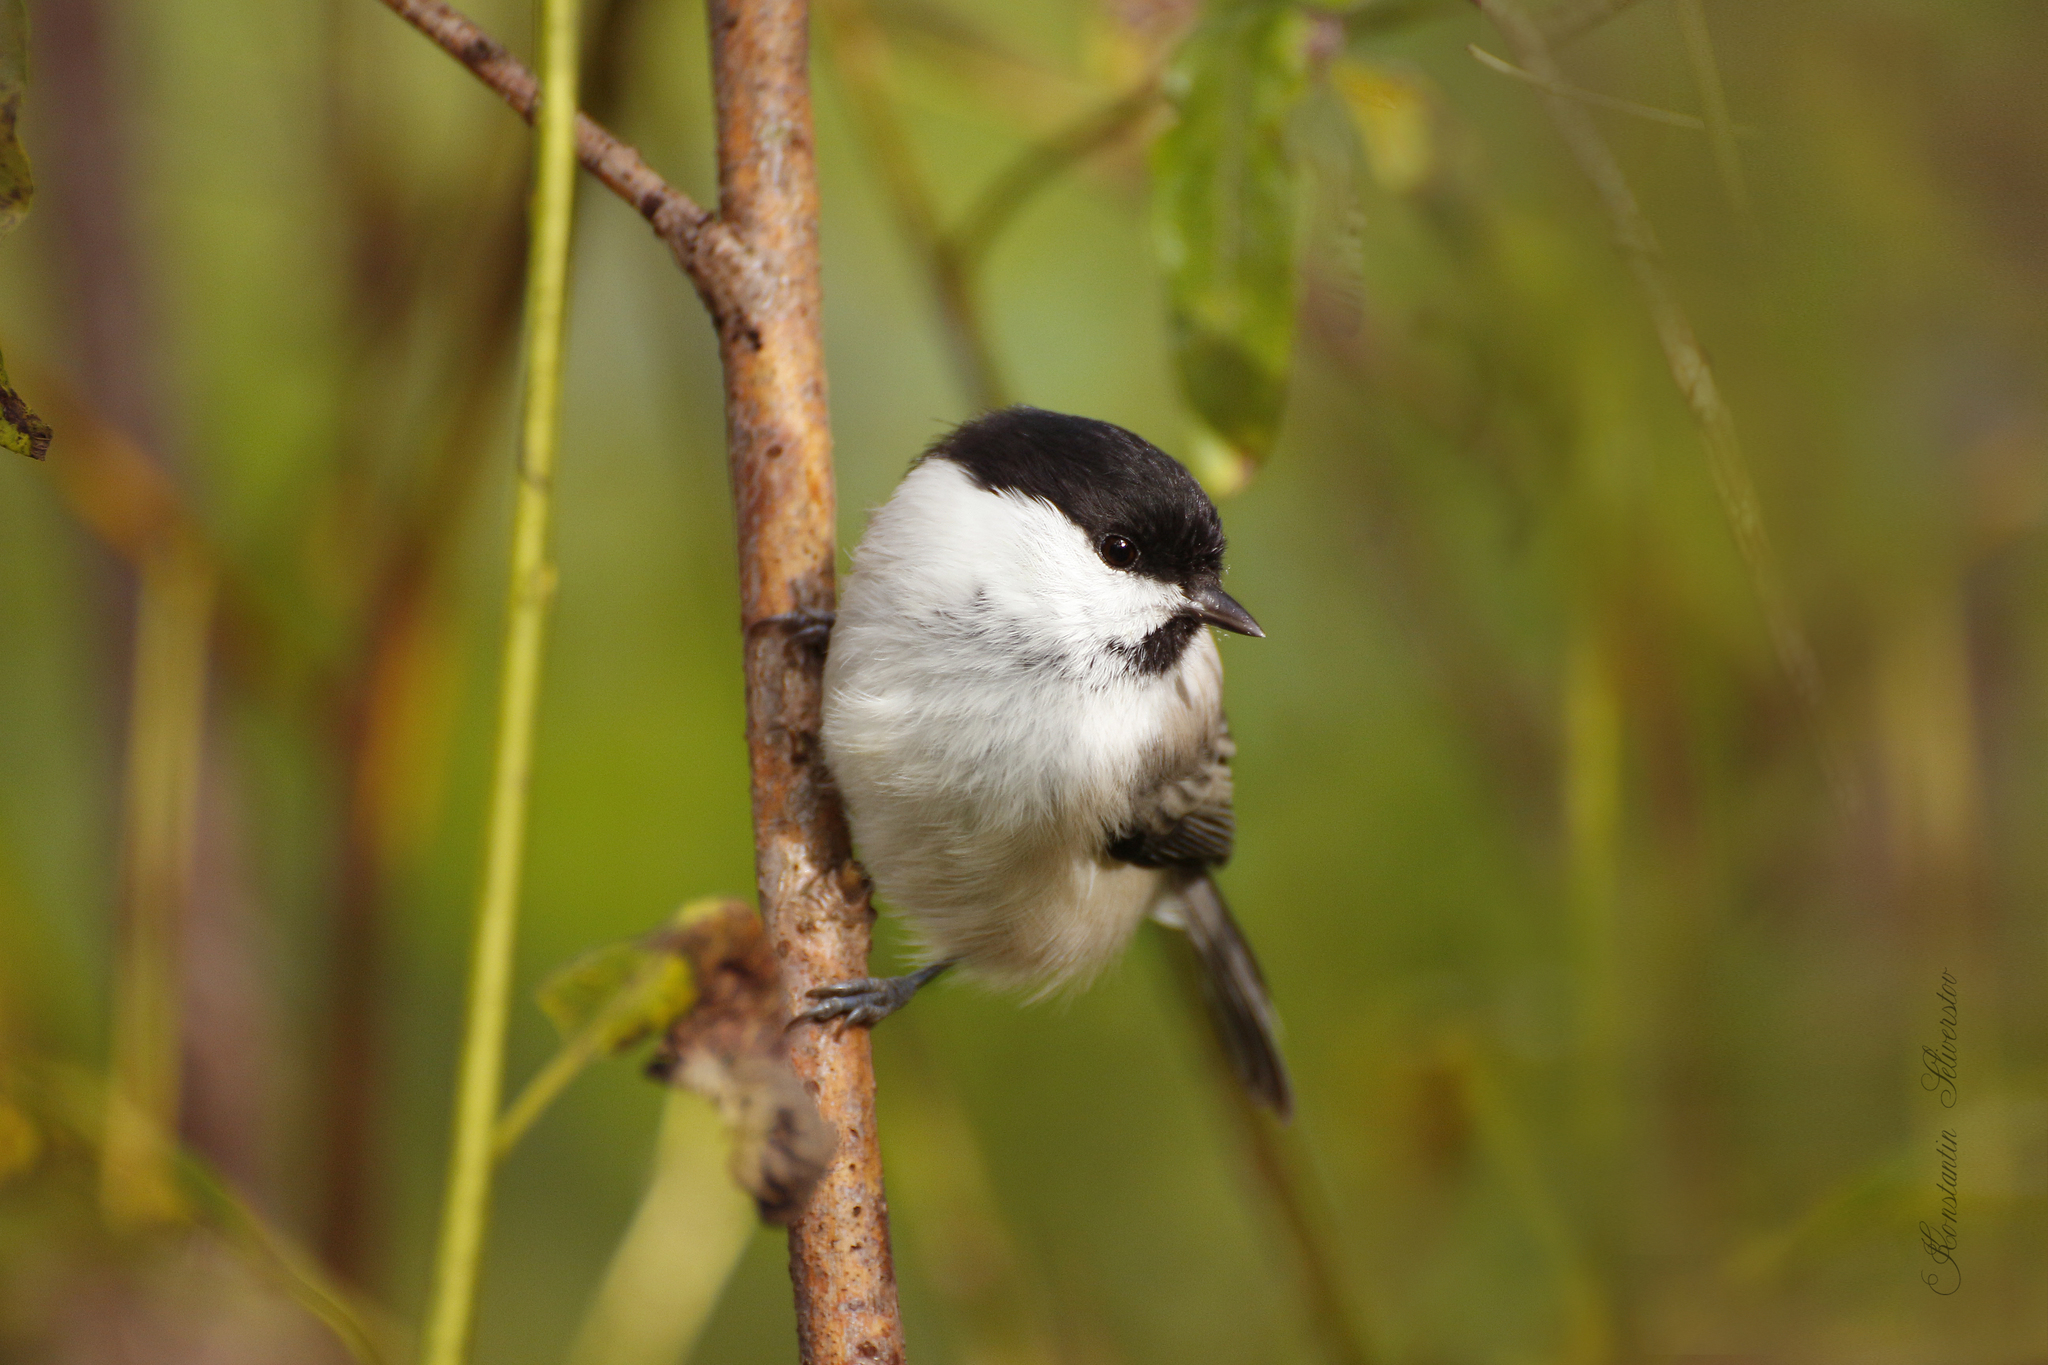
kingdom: Animalia
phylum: Chordata
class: Aves
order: Passeriformes
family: Paridae
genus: Poecile
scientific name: Poecile montanus
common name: Willow tit
